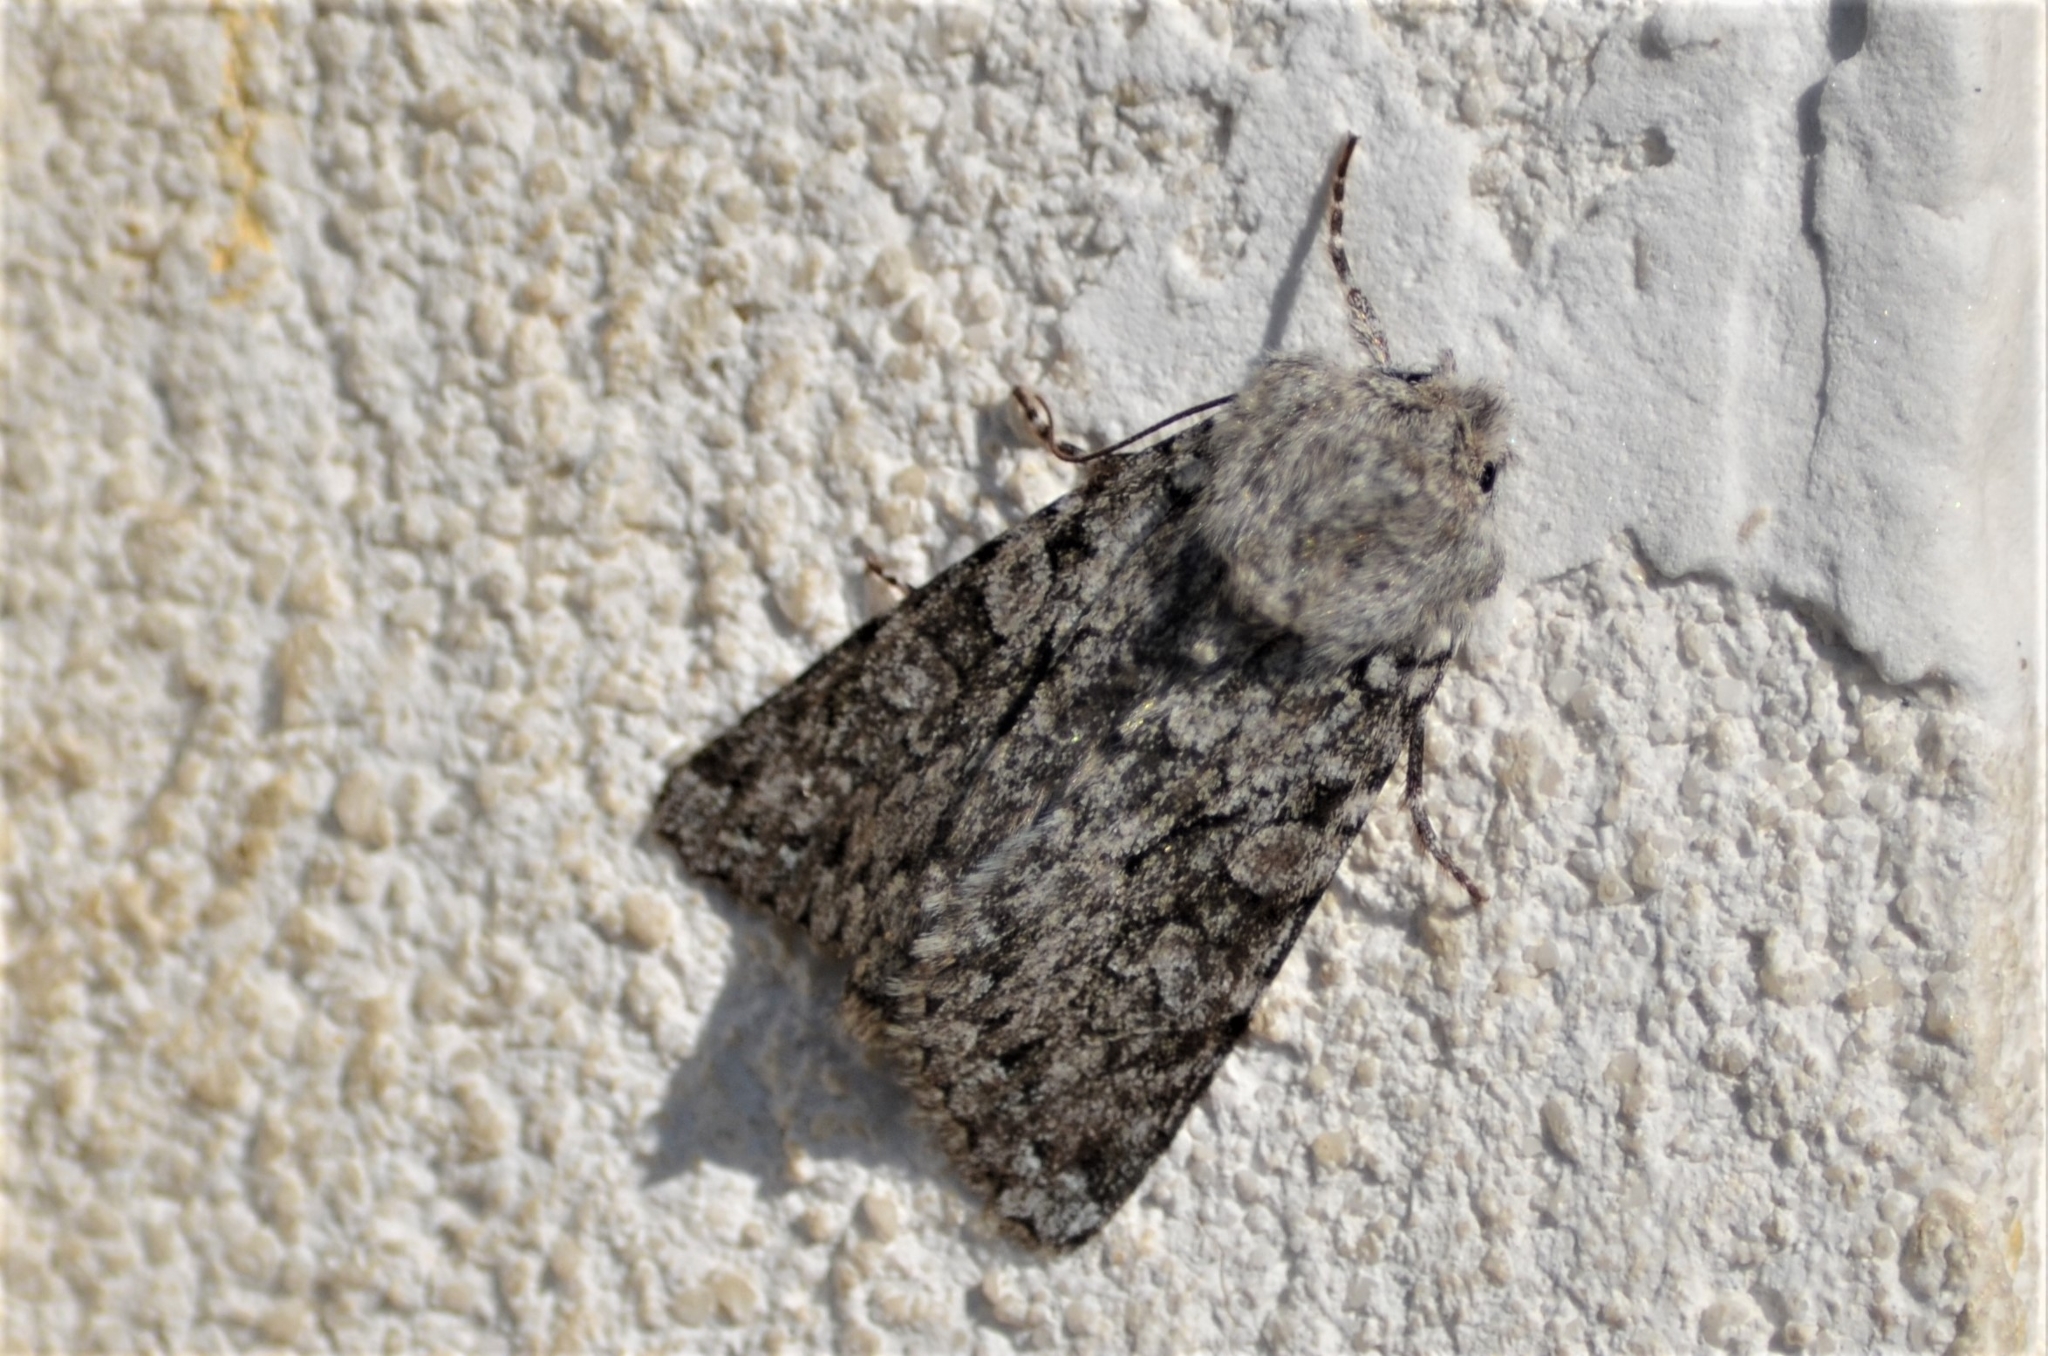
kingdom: Animalia
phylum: Arthropoda
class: Insecta
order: Lepidoptera
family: Noctuidae
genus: Antitype
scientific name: Antitype chi
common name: Grey chi
